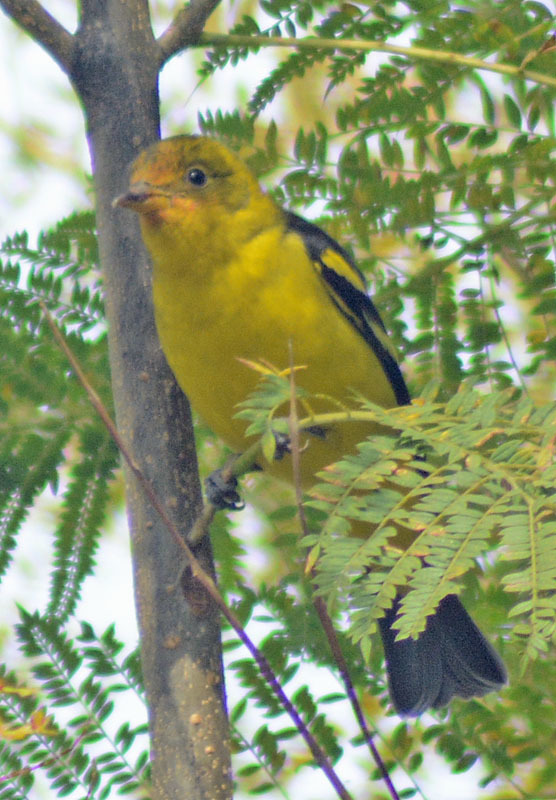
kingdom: Animalia
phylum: Chordata
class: Aves
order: Passeriformes
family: Cardinalidae
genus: Piranga
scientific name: Piranga ludoviciana
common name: Western tanager
